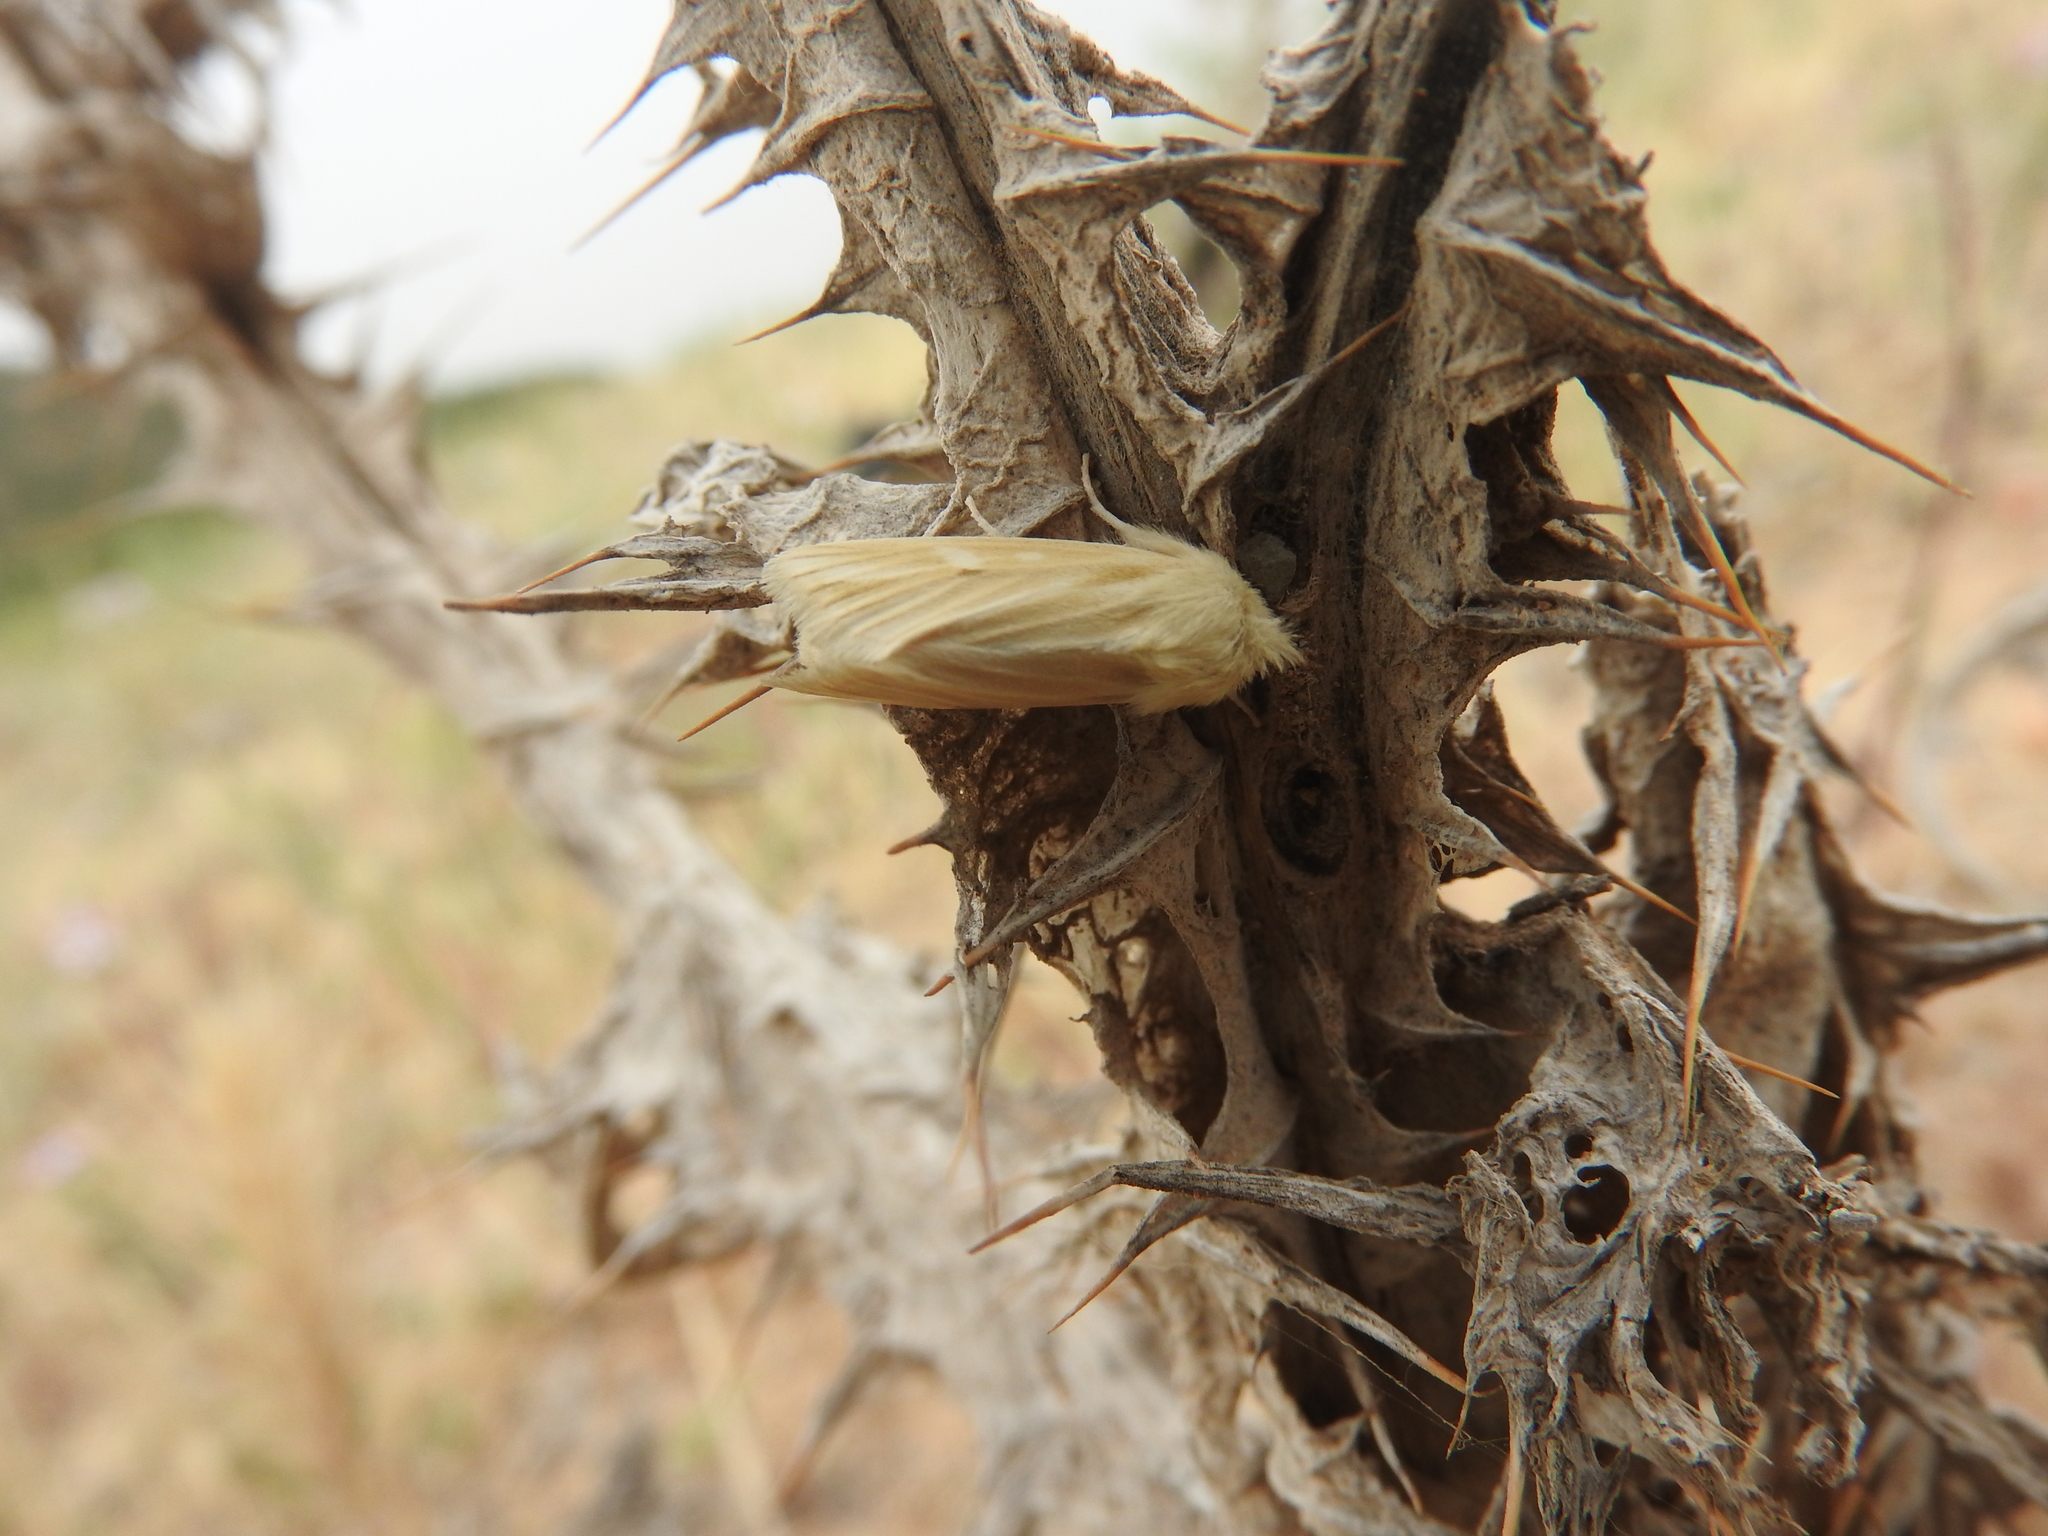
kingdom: Animalia
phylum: Arthropoda
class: Insecta
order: Lepidoptera
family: Noctuidae
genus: Oria
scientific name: Oria musculosa
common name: Brighton wainscot
